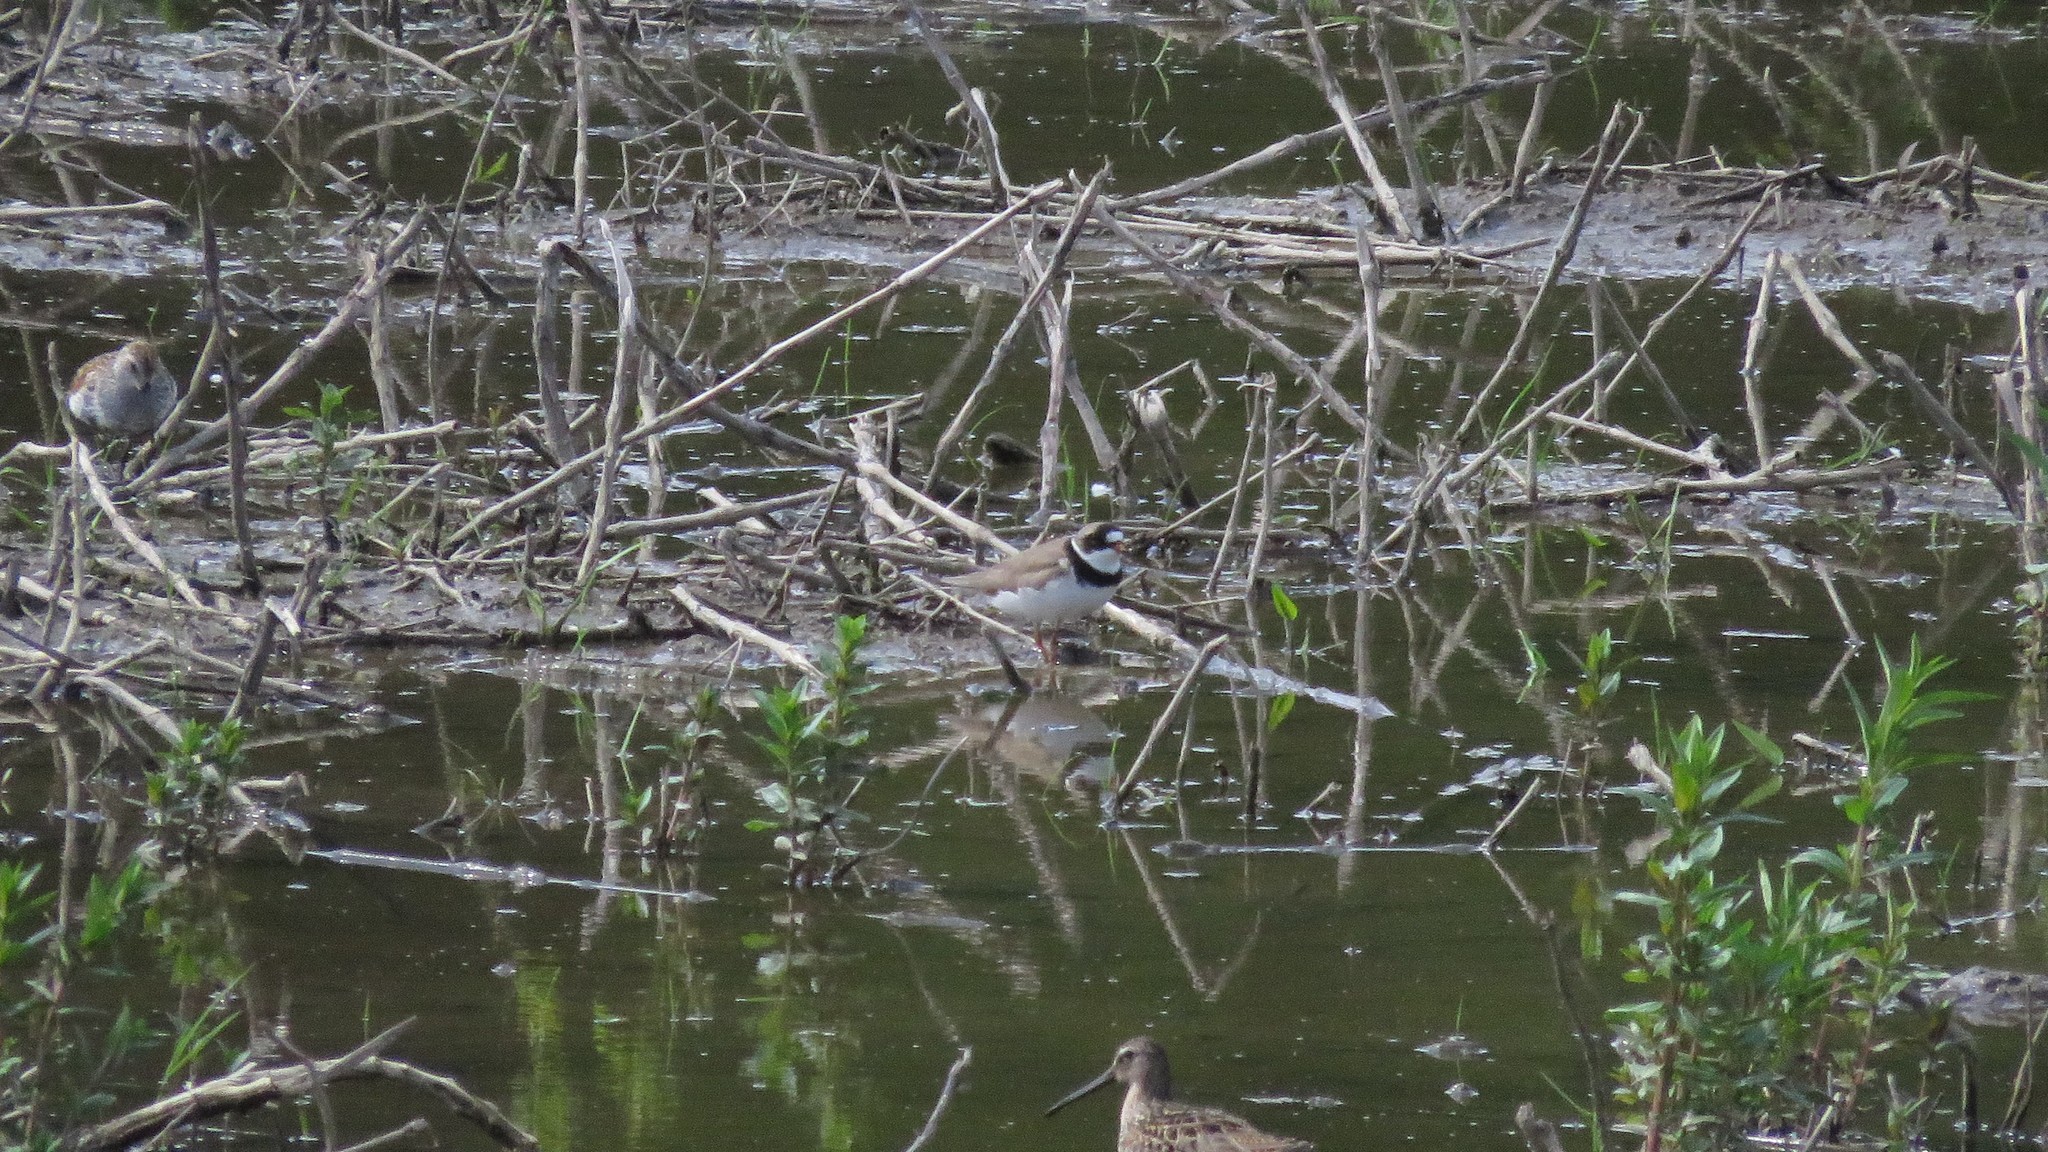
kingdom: Animalia
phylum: Chordata
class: Aves
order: Charadriiformes
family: Charadriidae
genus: Charadrius
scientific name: Charadrius semipalmatus
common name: Semipalmated plover
